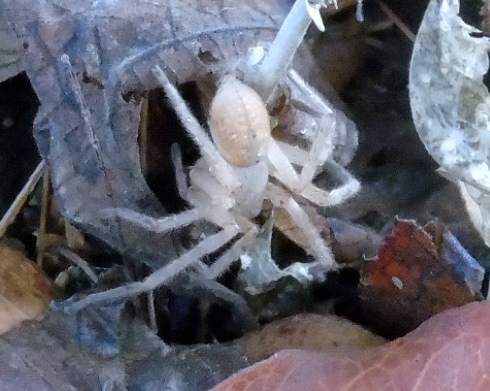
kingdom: Animalia
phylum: Arthropoda
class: Arachnida
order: Araneae
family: Sparassidae
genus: Olios
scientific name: Olios giganteus
